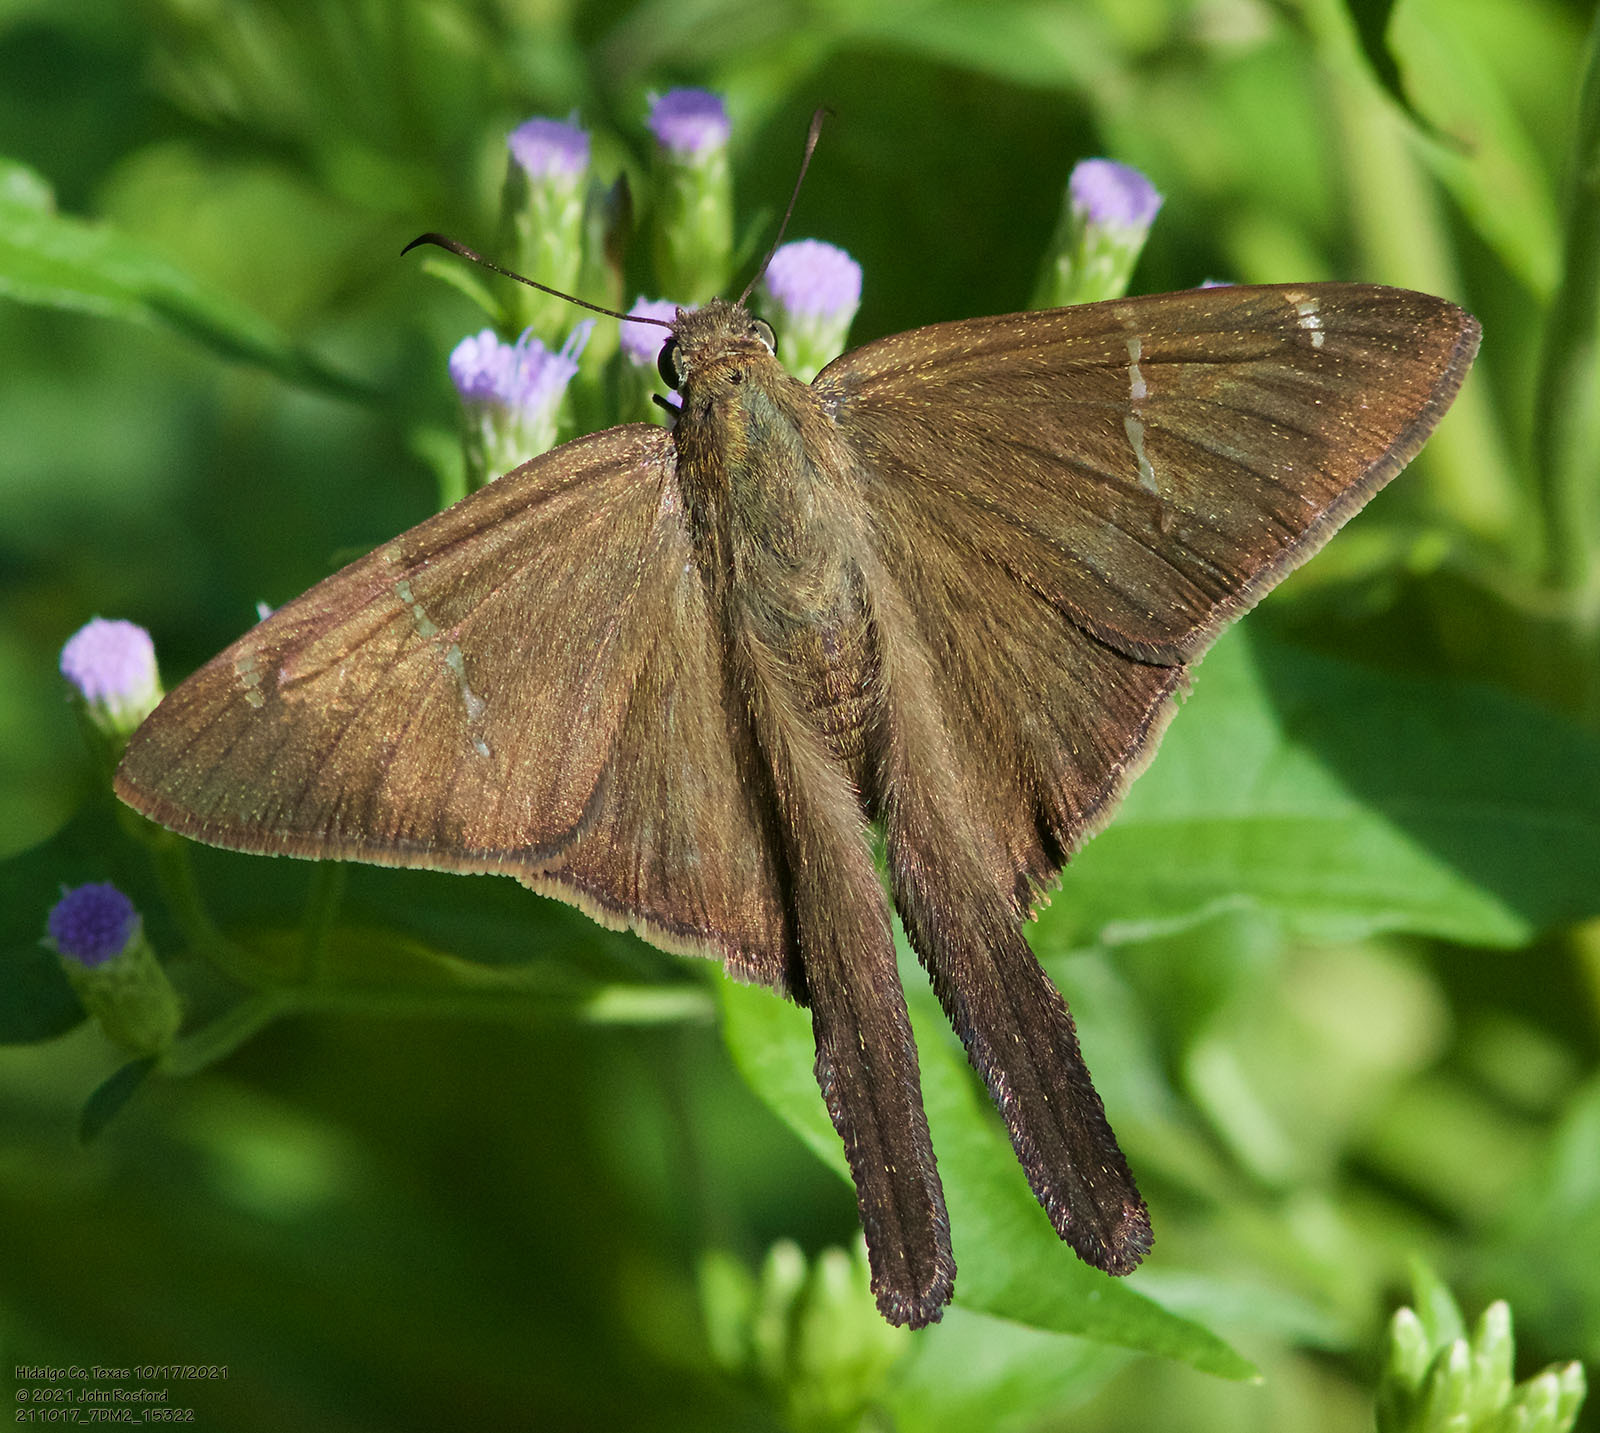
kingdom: Animalia
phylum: Arthropoda
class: Insecta
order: Lepidoptera
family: Hesperiidae
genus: Urbanus
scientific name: Urbanus procne
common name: Brown longtail
